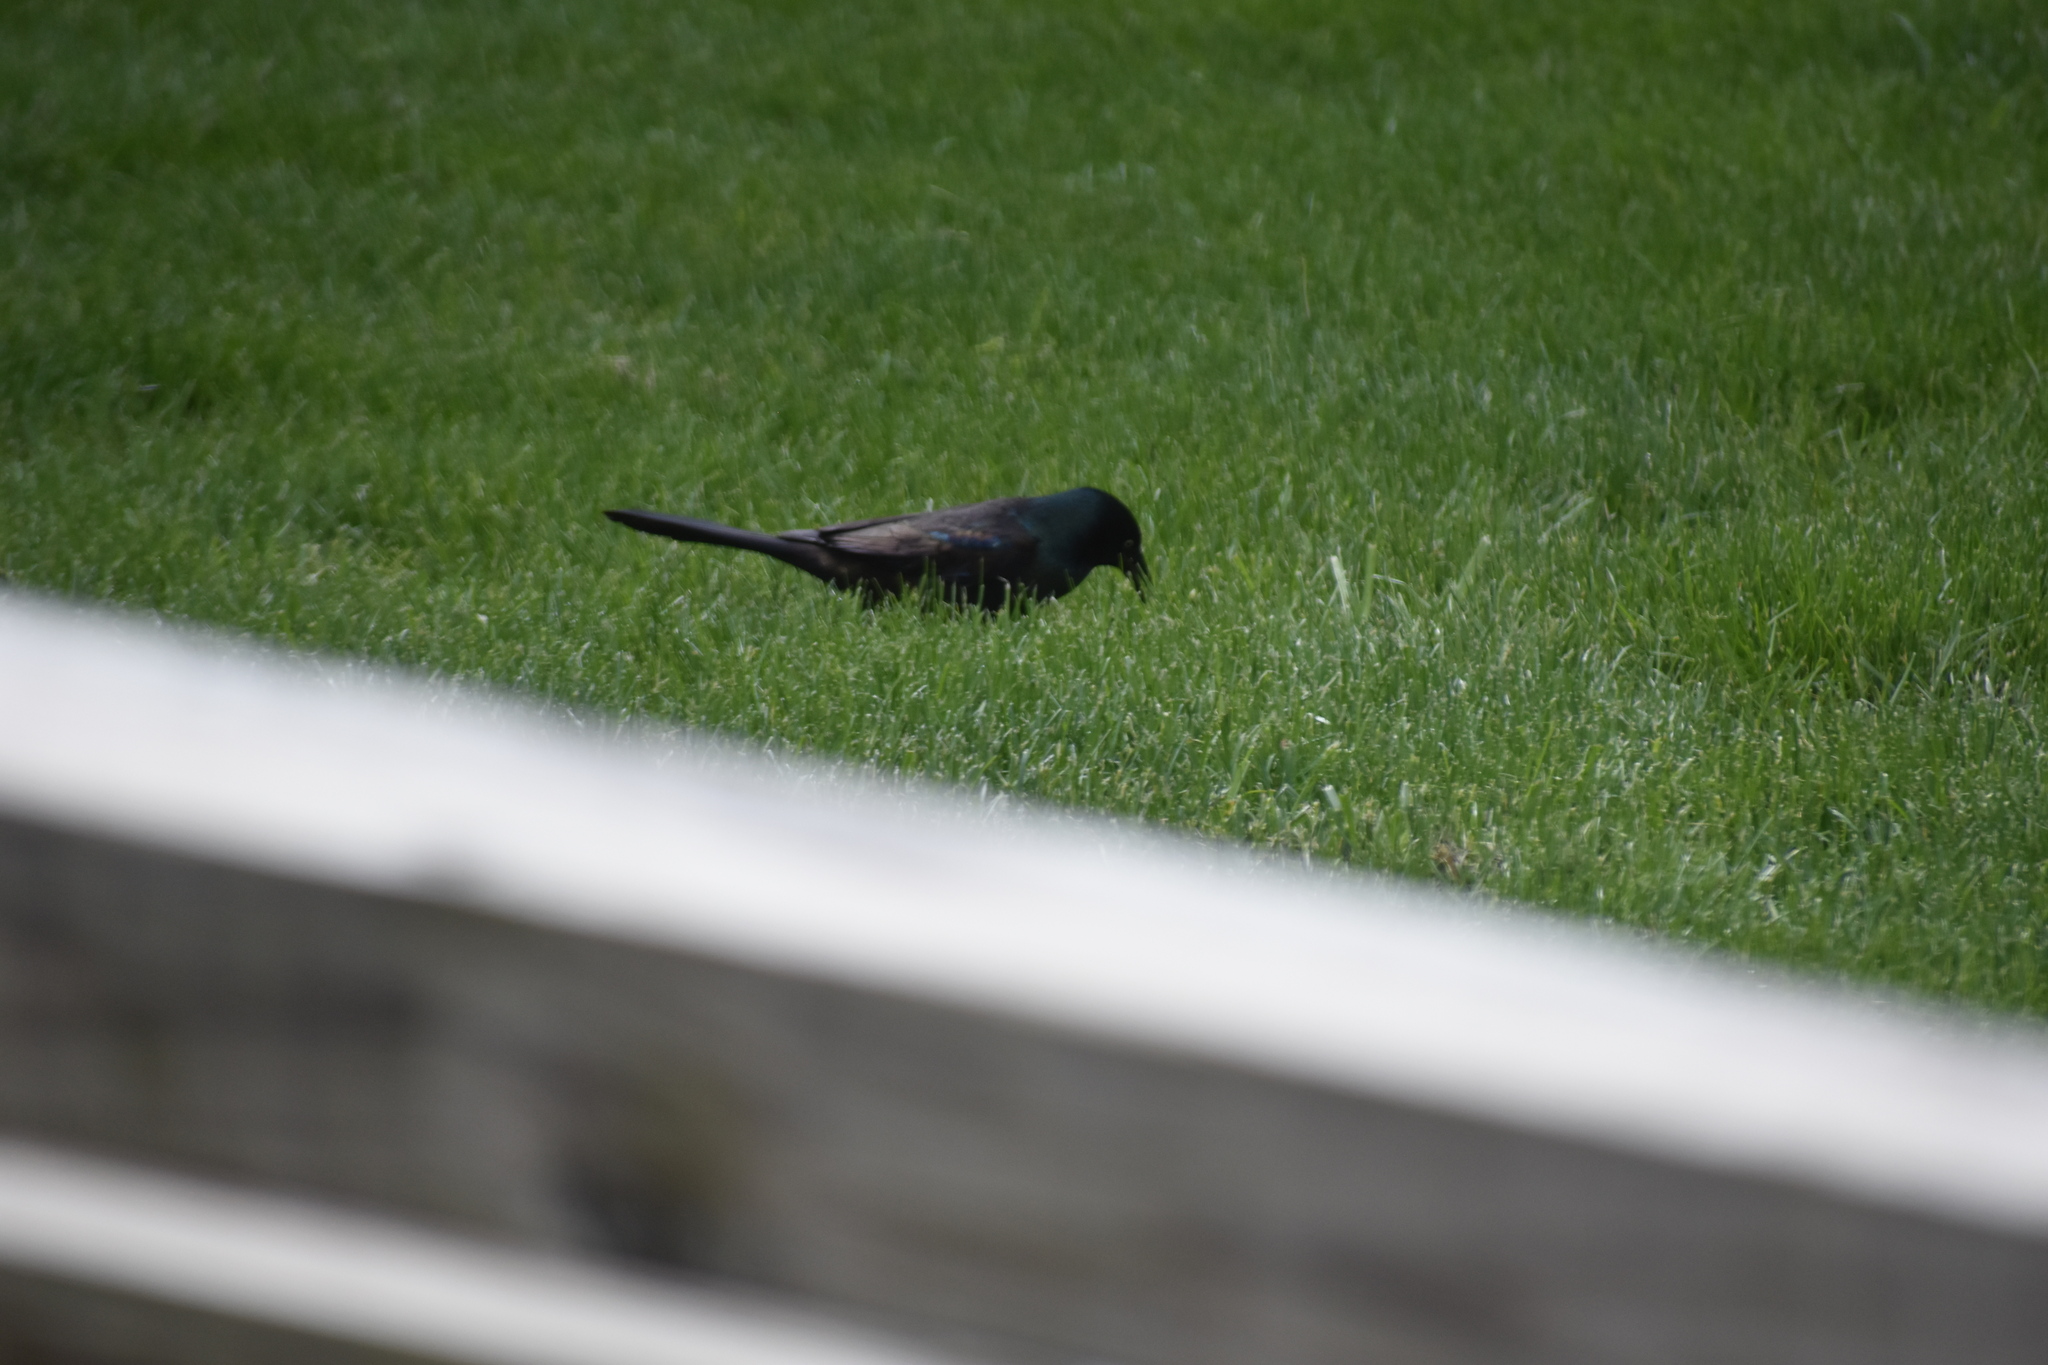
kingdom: Animalia
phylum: Chordata
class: Aves
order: Passeriformes
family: Icteridae
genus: Quiscalus
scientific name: Quiscalus quiscula
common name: Common grackle
